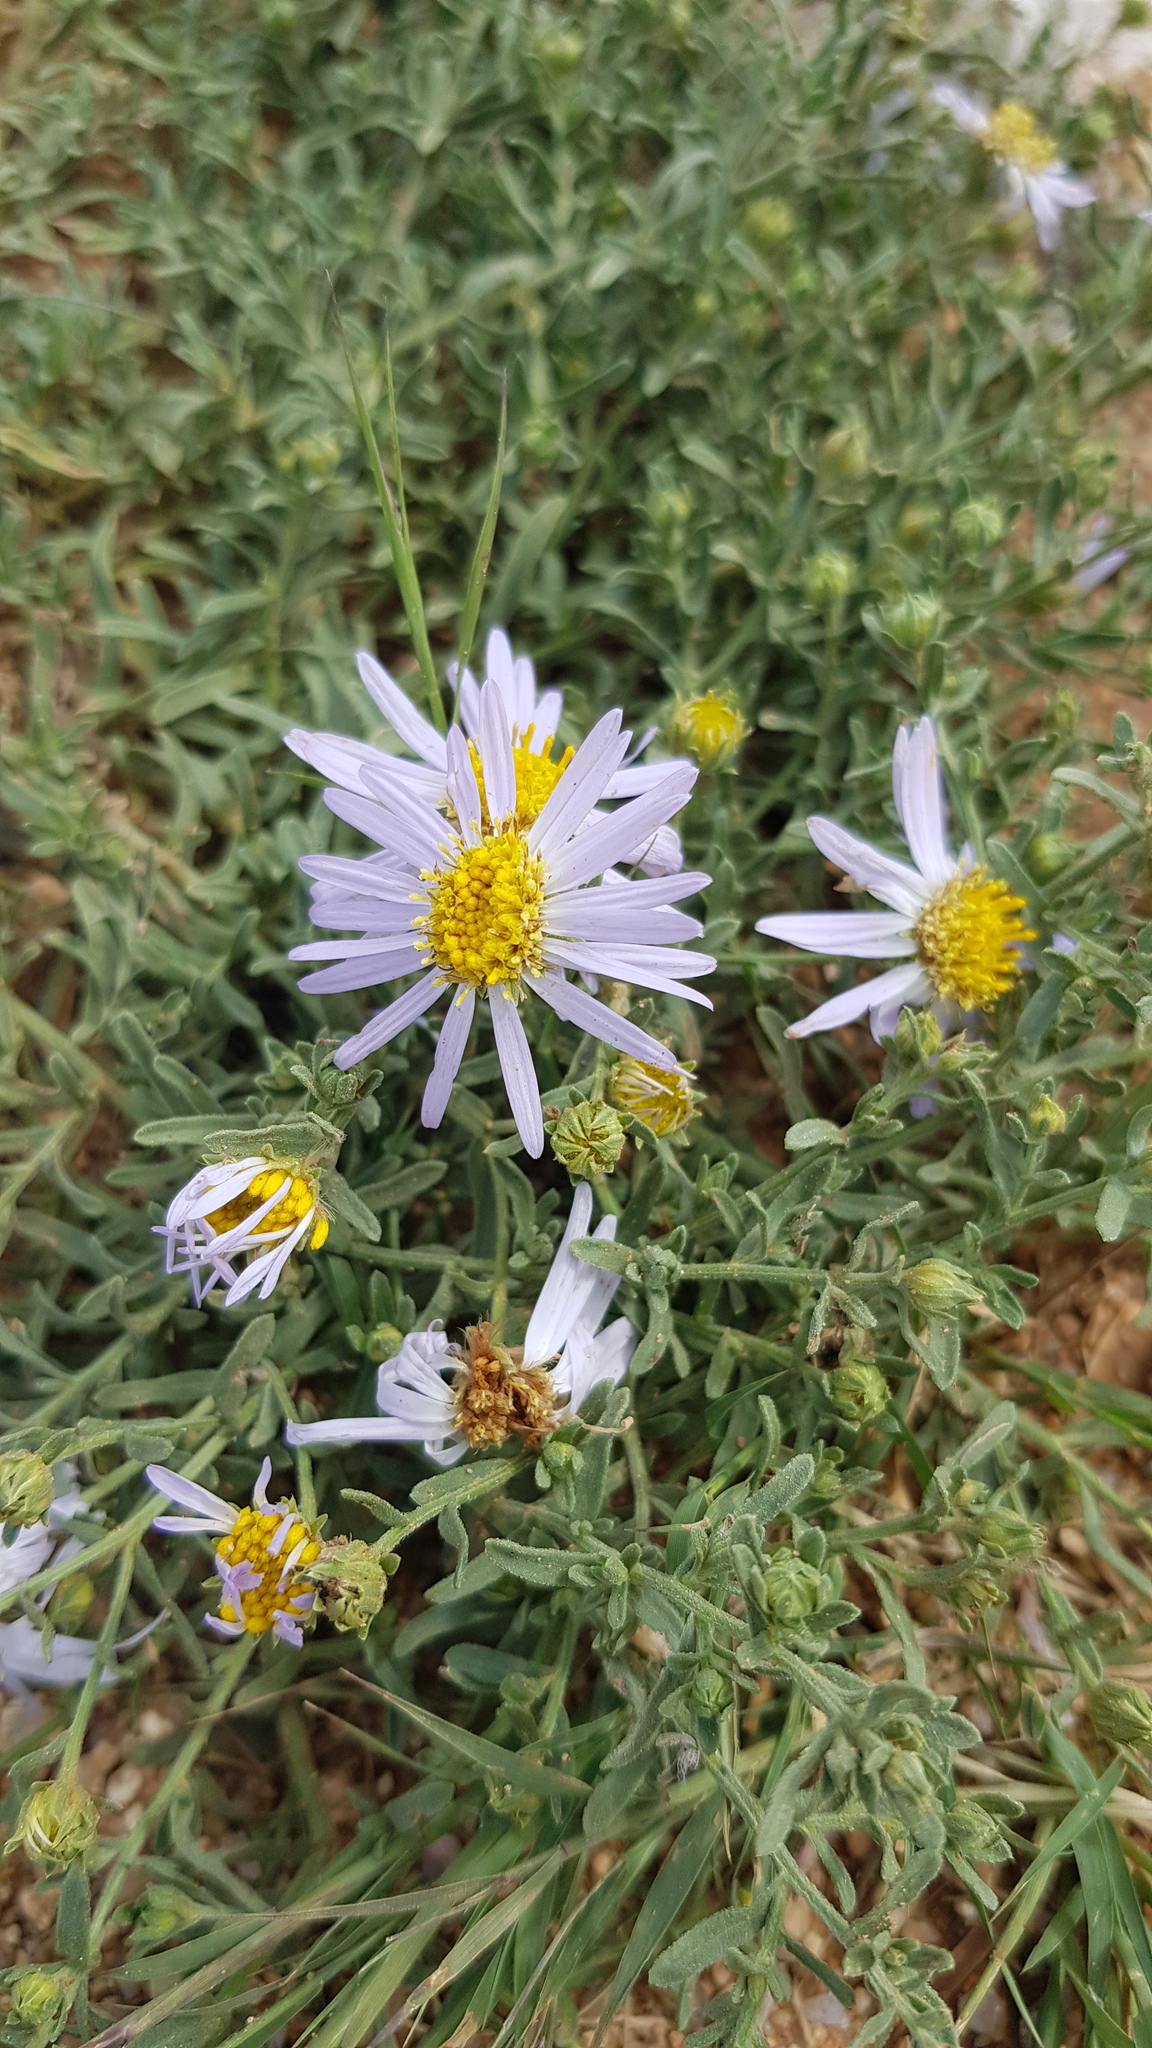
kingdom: Plantae
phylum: Tracheophyta
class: Magnoliopsida
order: Asterales
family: Asteraceae
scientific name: Asteraceae
